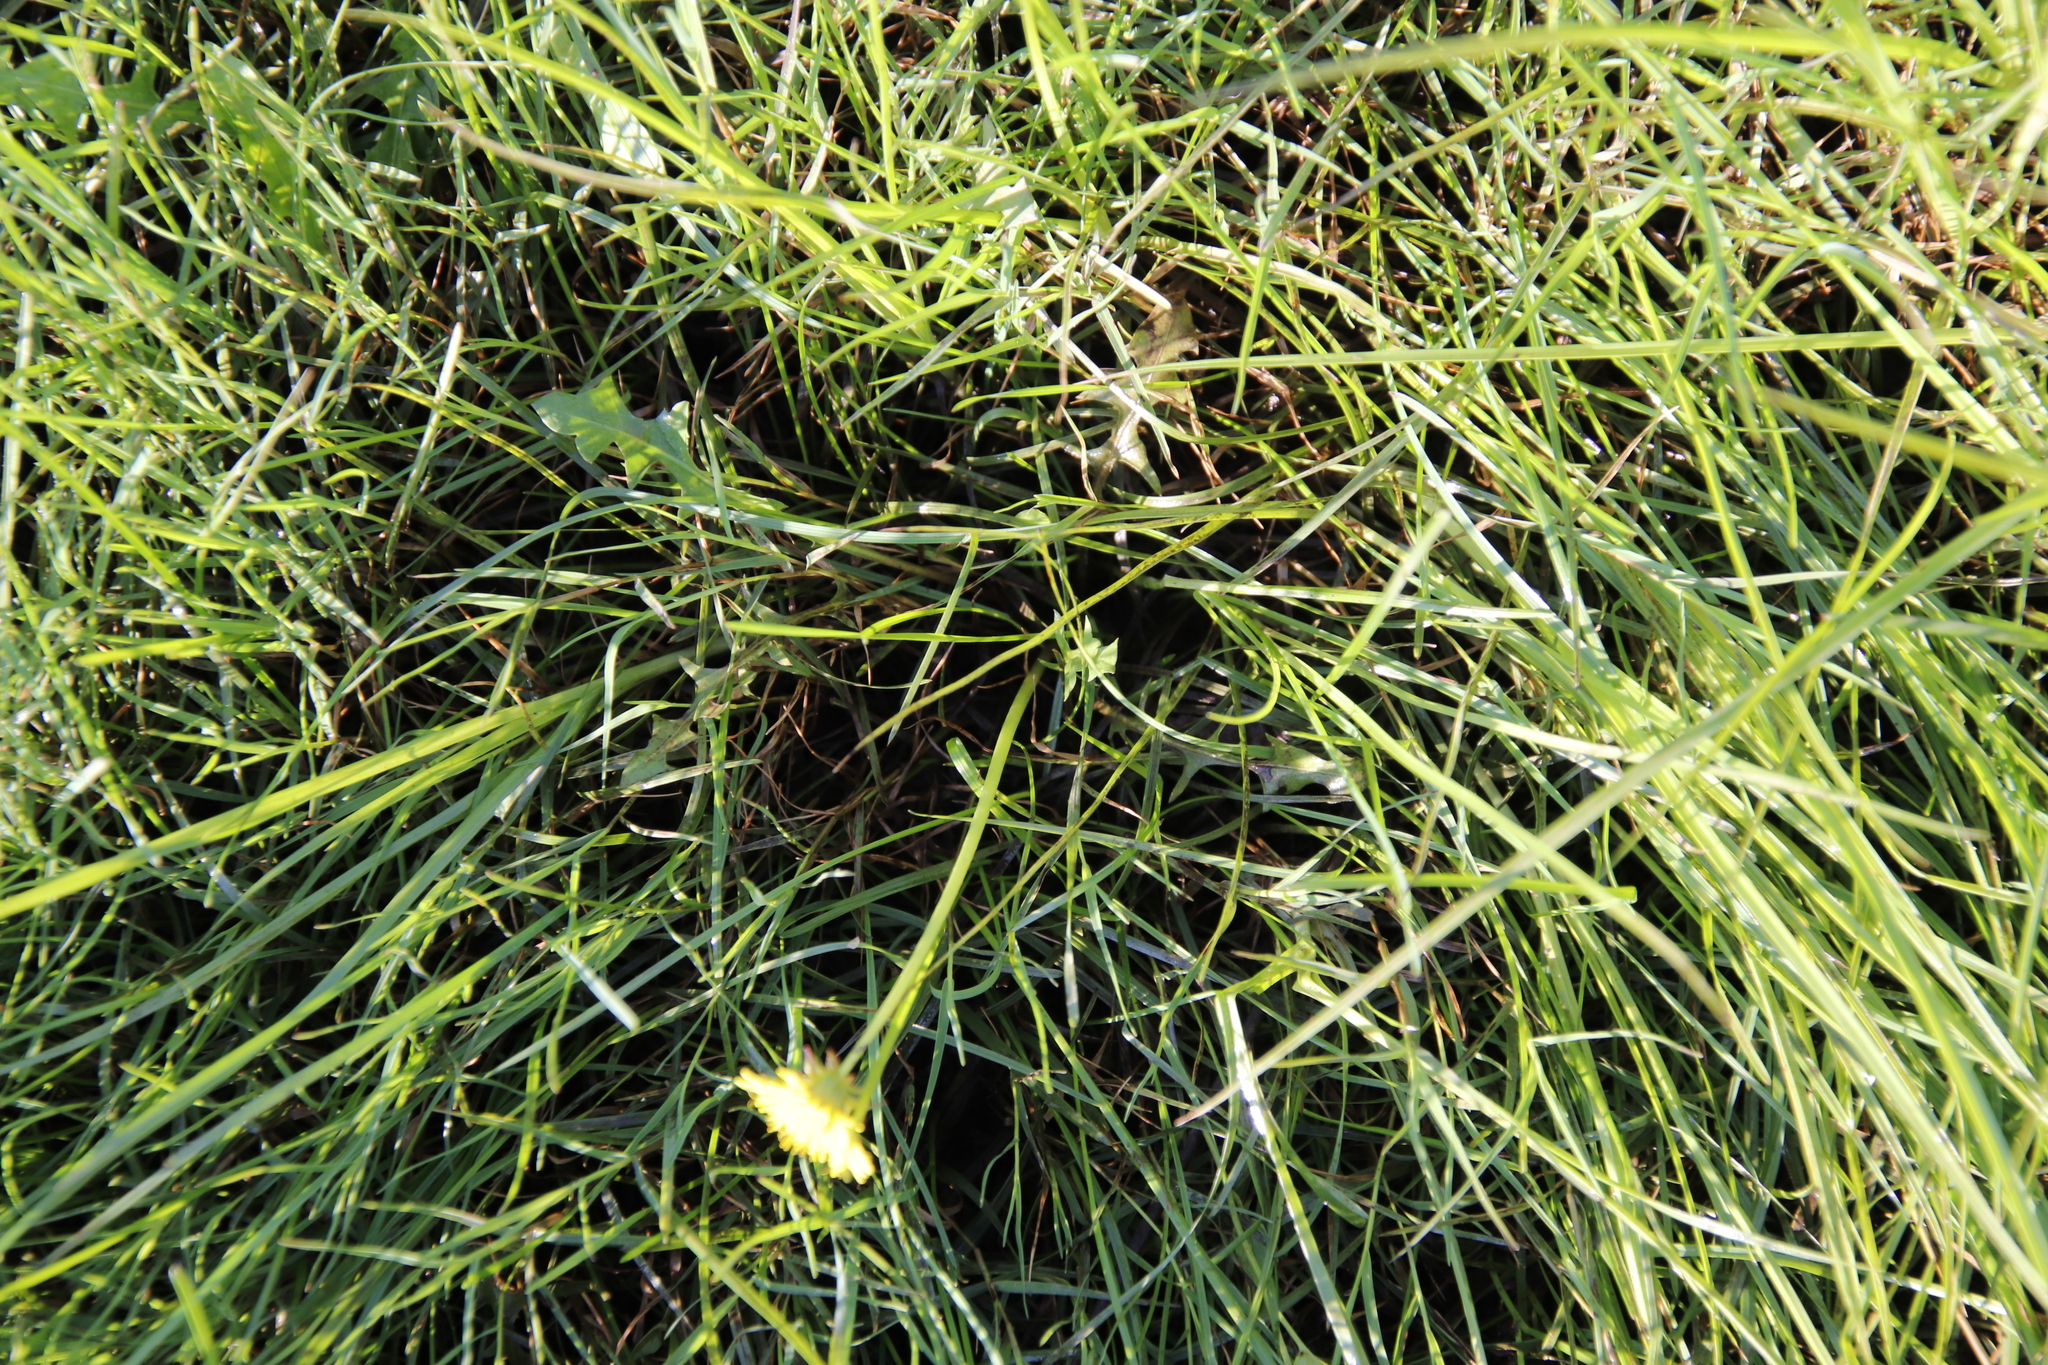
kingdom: Plantae
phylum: Tracheophyta
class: Magnoliopsida
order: Asterales
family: Asteraceae
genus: Taraxacum
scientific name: Taraxacum officinale
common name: Common dandelion
